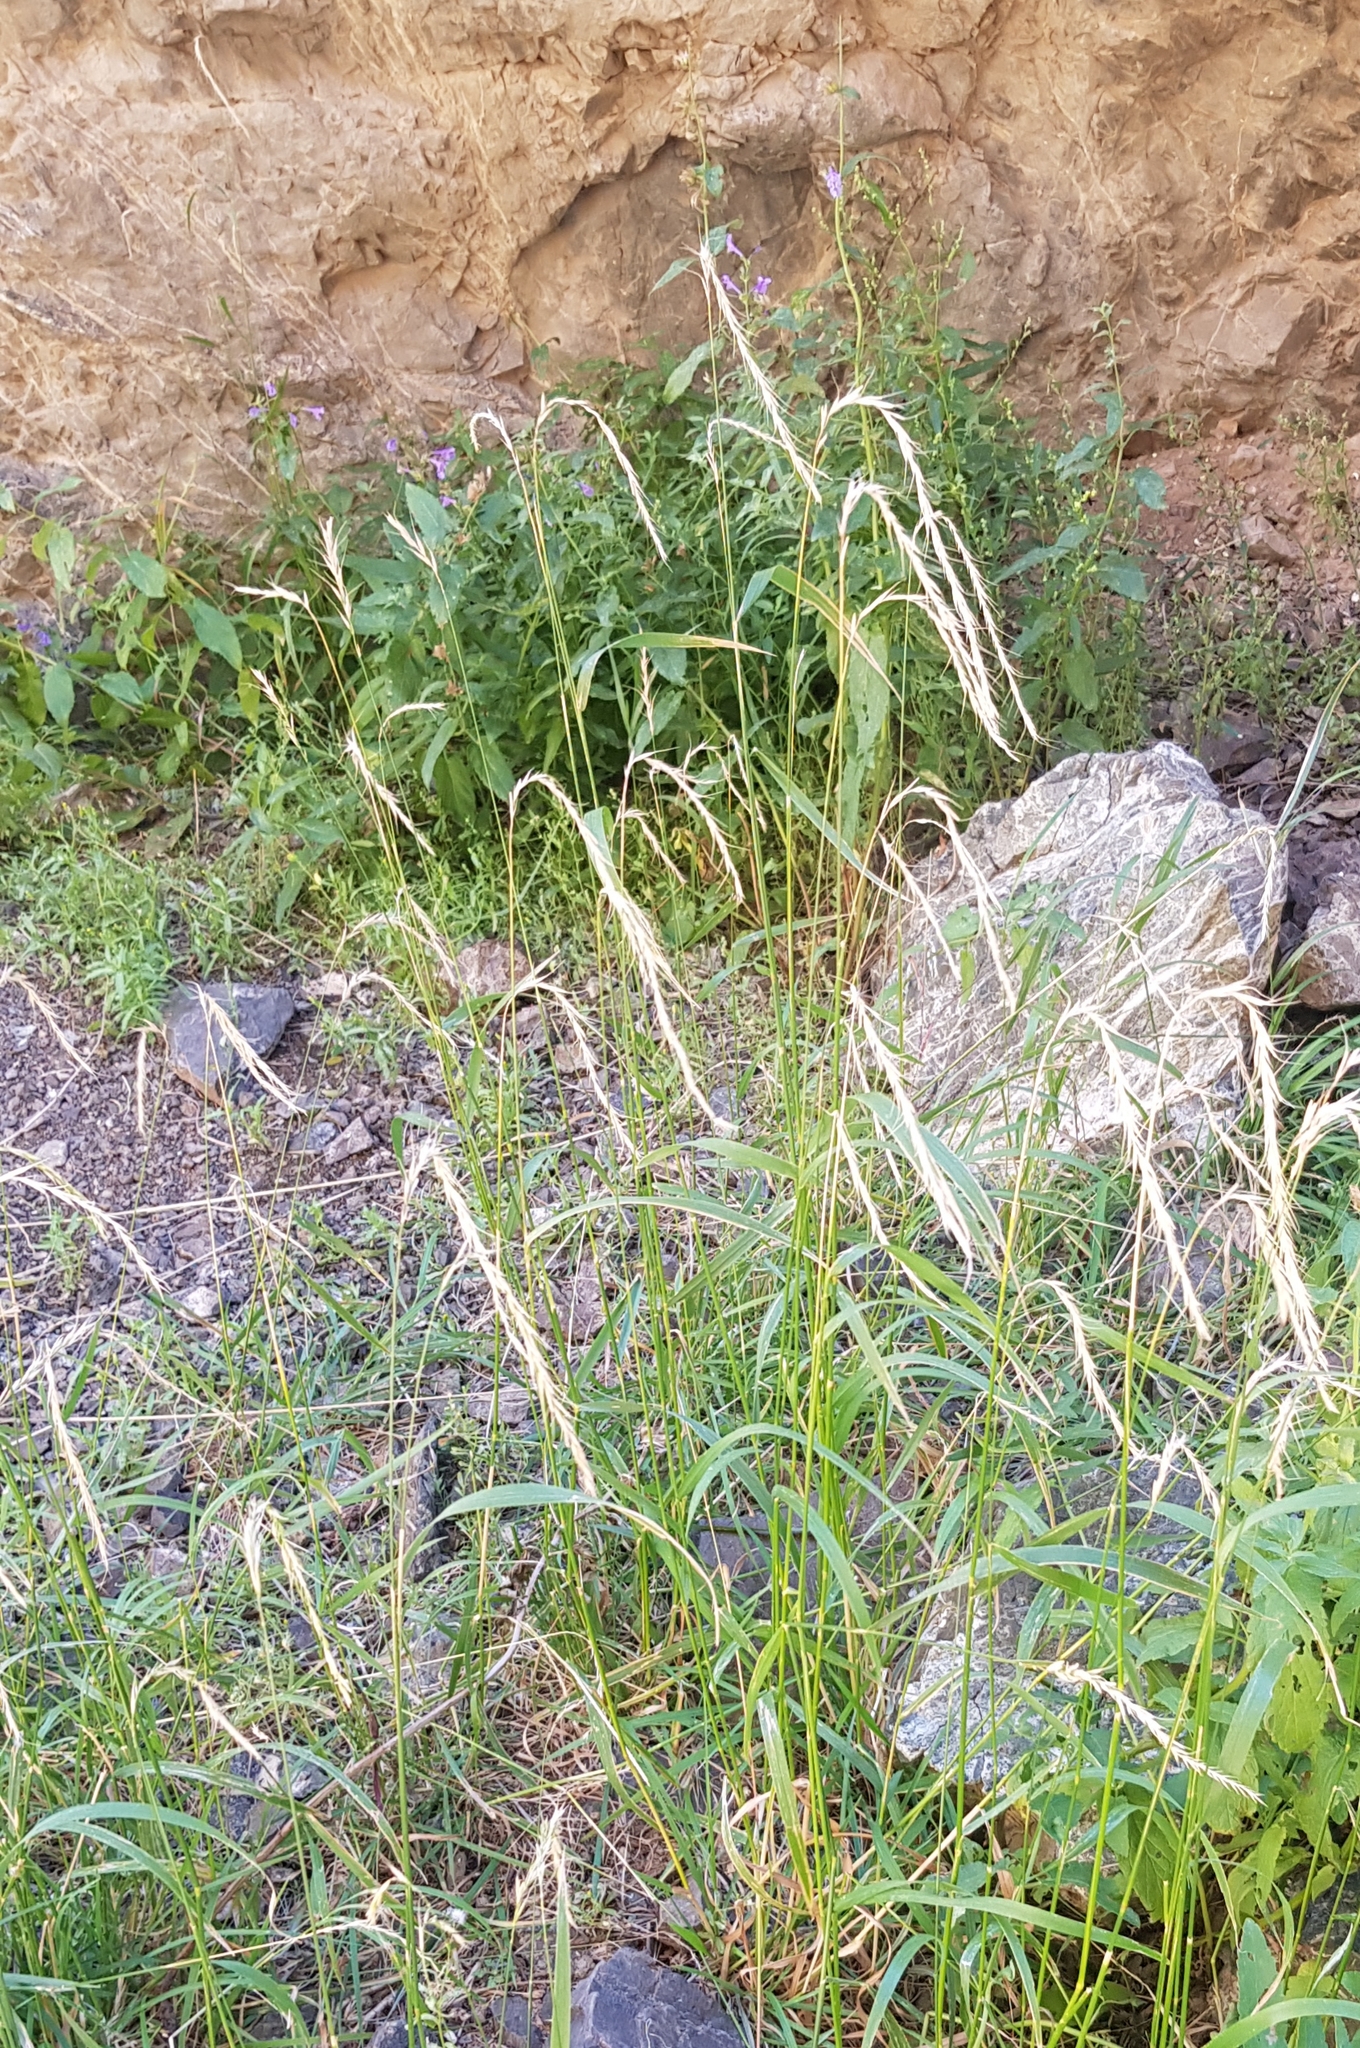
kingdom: Plantae
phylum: Tracheophyta
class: Liliopsida
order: Poales
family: Poaceae
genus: Elymus
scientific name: Elymus sibiricus
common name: Siberian wildrye
